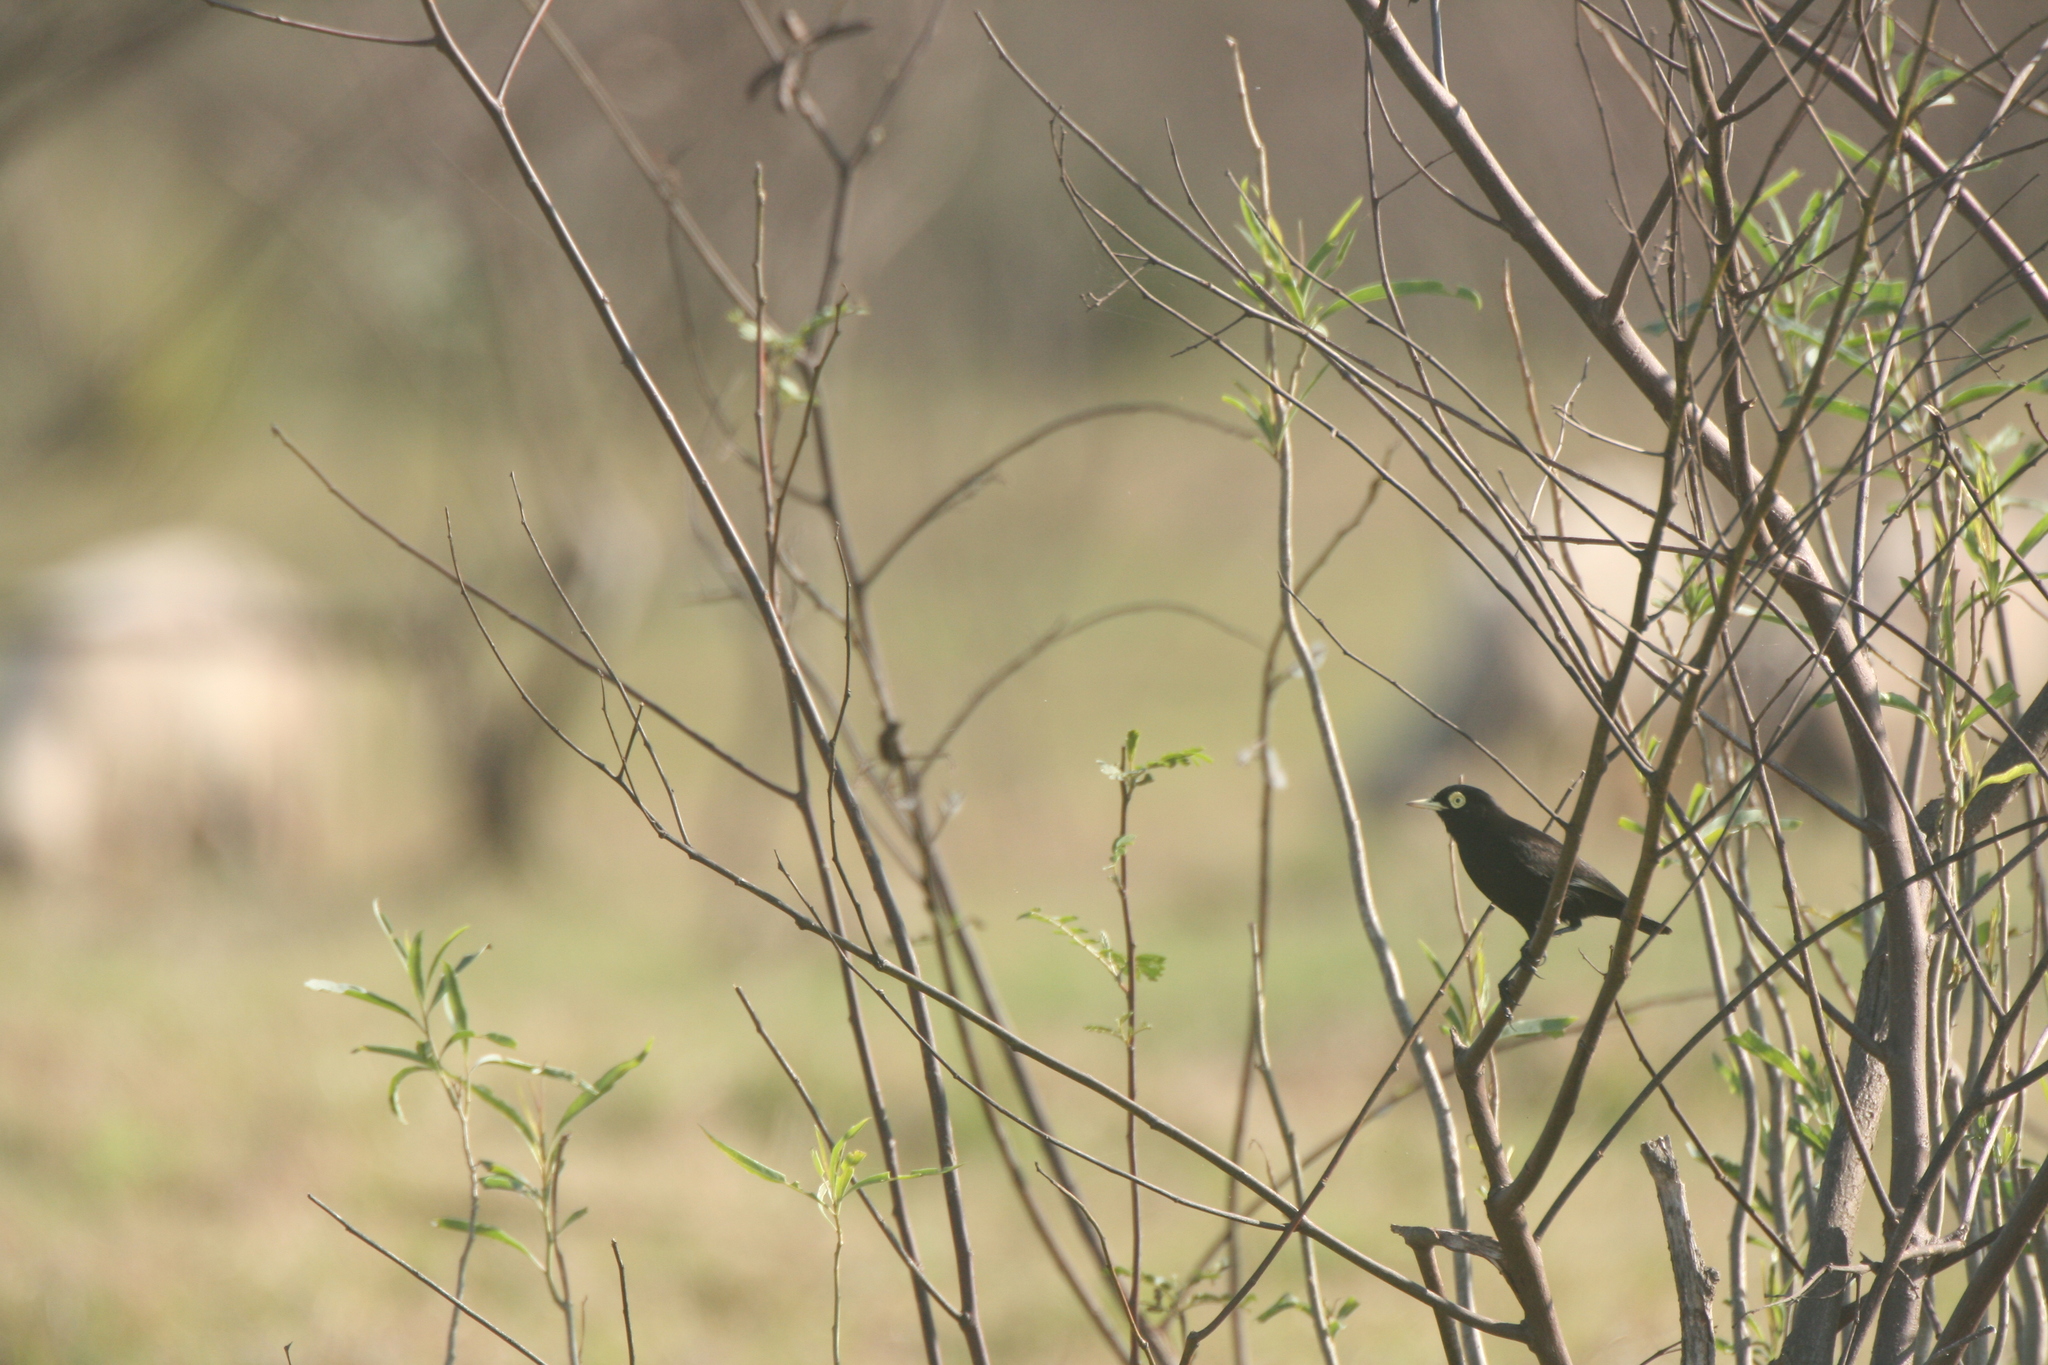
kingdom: Animalia
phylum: Chordata
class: Aves
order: Passeriformes
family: Tyrannidae
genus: Hymenops
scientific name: Hymenops perspicillatus
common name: Spectacled tyrant
